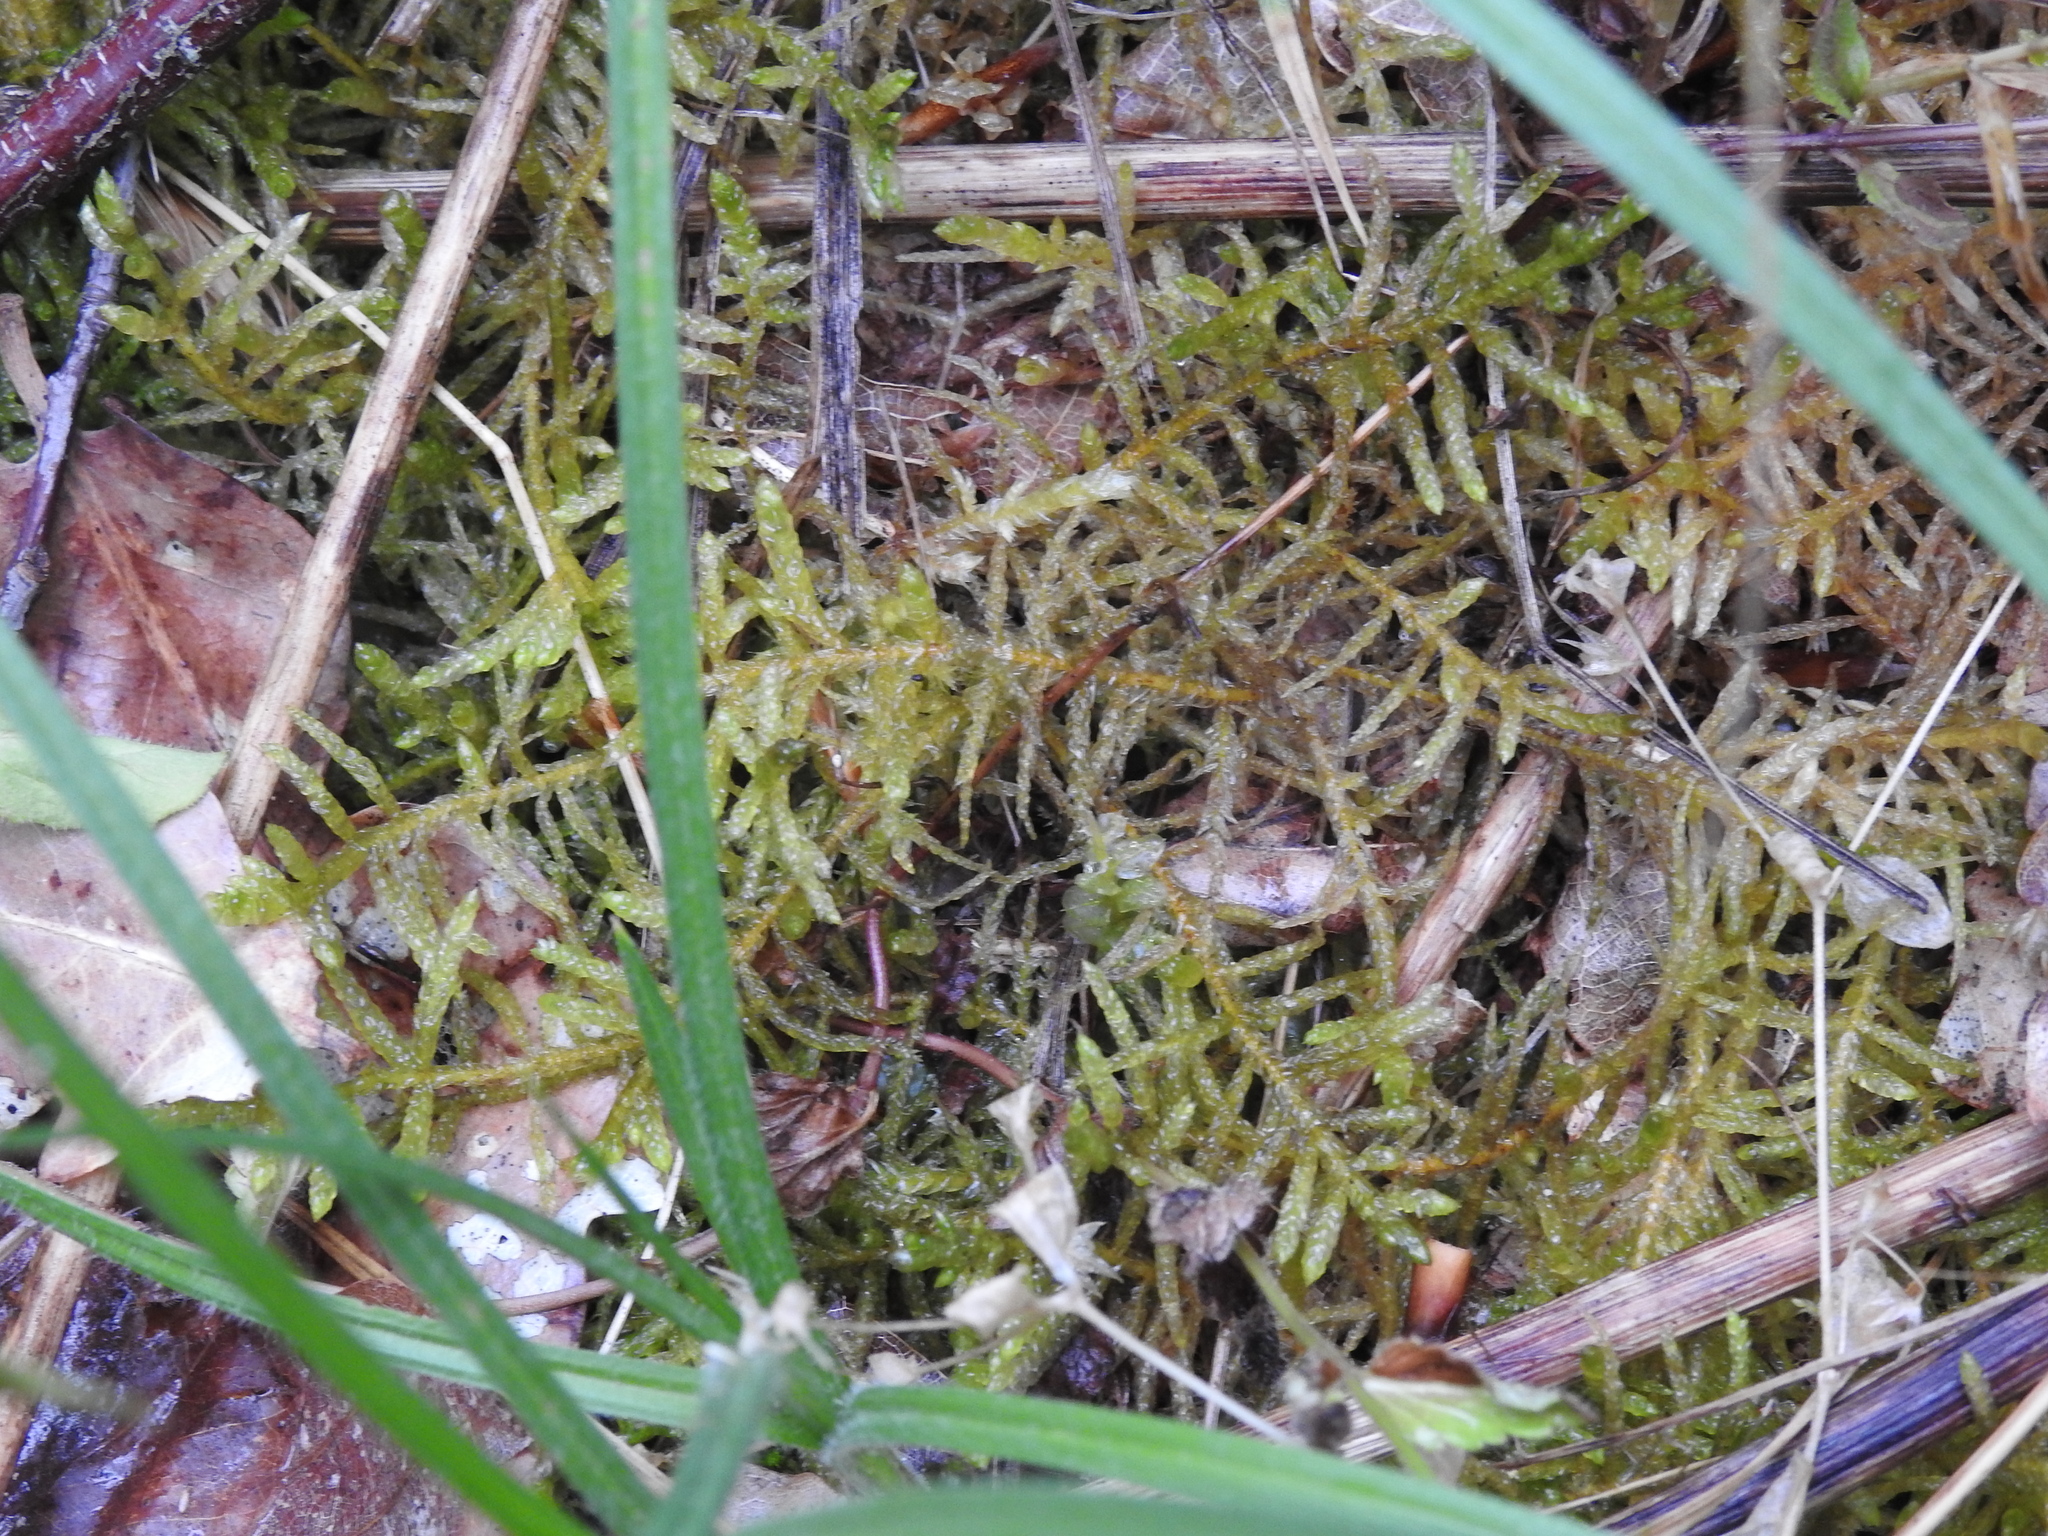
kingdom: Plantae
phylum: Bryophyta
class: Bryopsida
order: Hypnales
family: Brachytheciaceae
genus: Pseudoscleropodium
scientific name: Pseudoscleropodium purum
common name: Neat feather-moss
